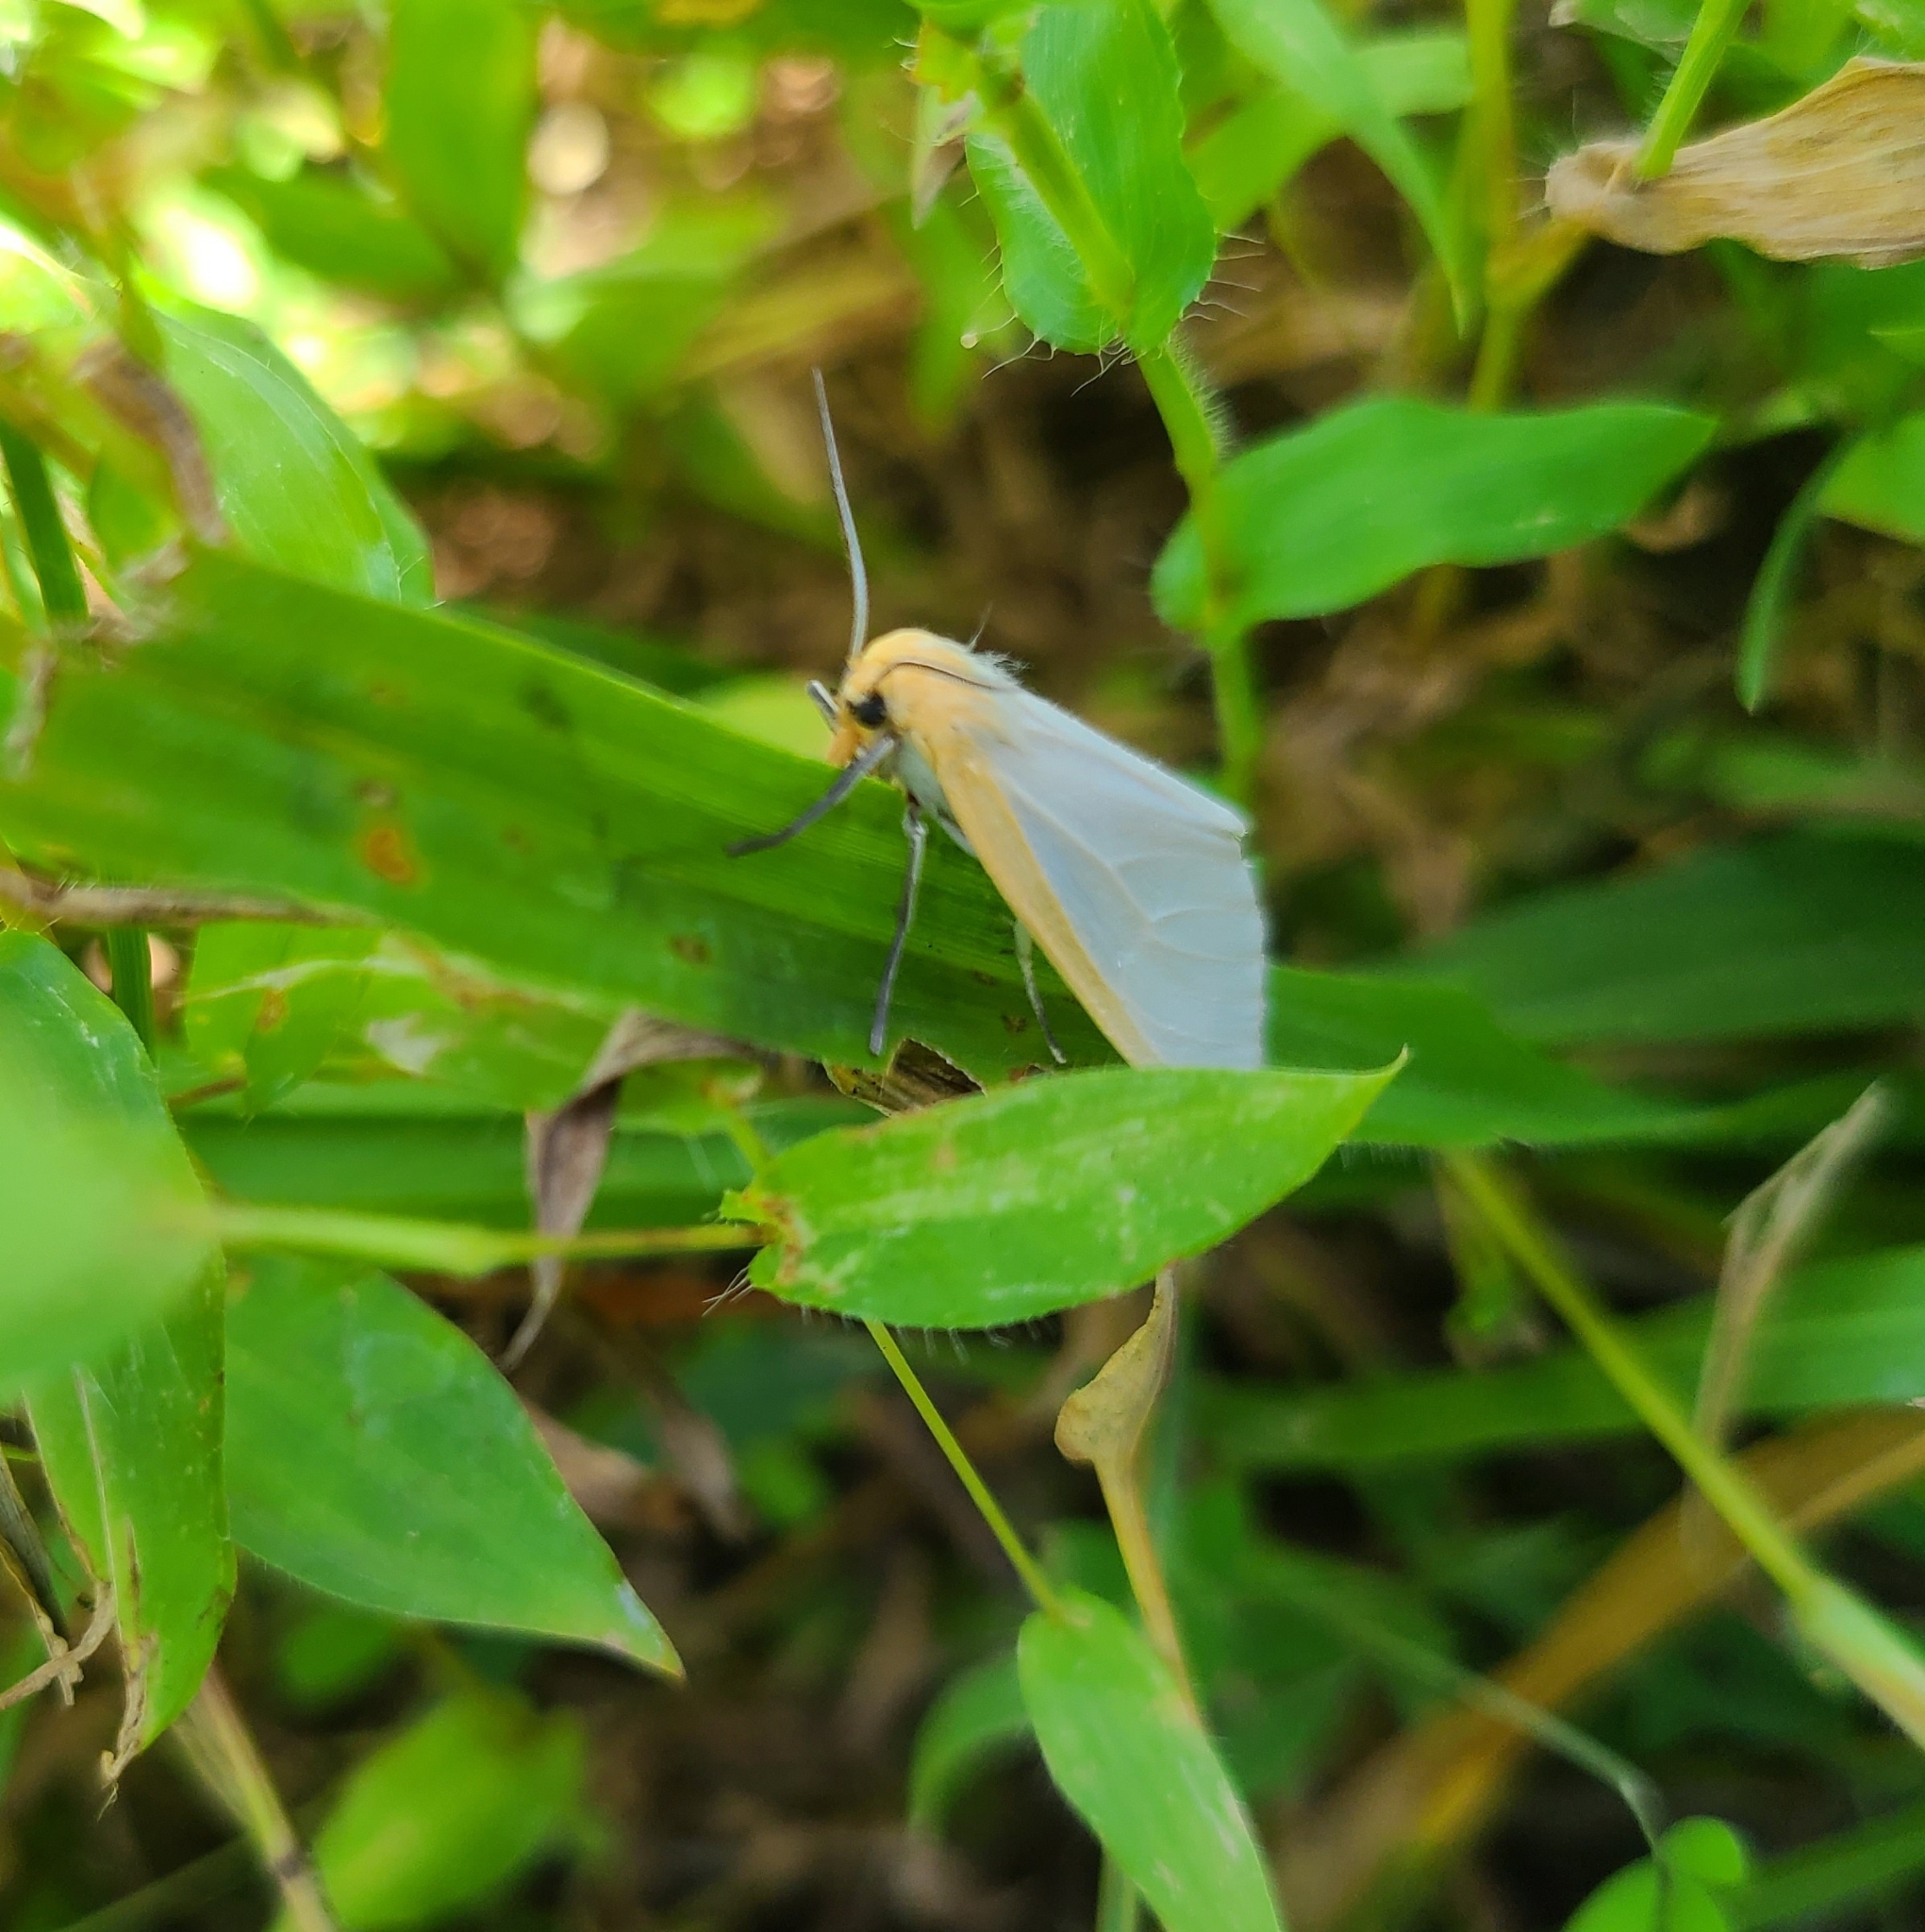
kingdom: Animalia
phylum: Arthropoda
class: Insecta
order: Lepidoptera
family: Erebidae
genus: Cycnia
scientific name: Cycnia tenera
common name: Delicate cycnia moth
